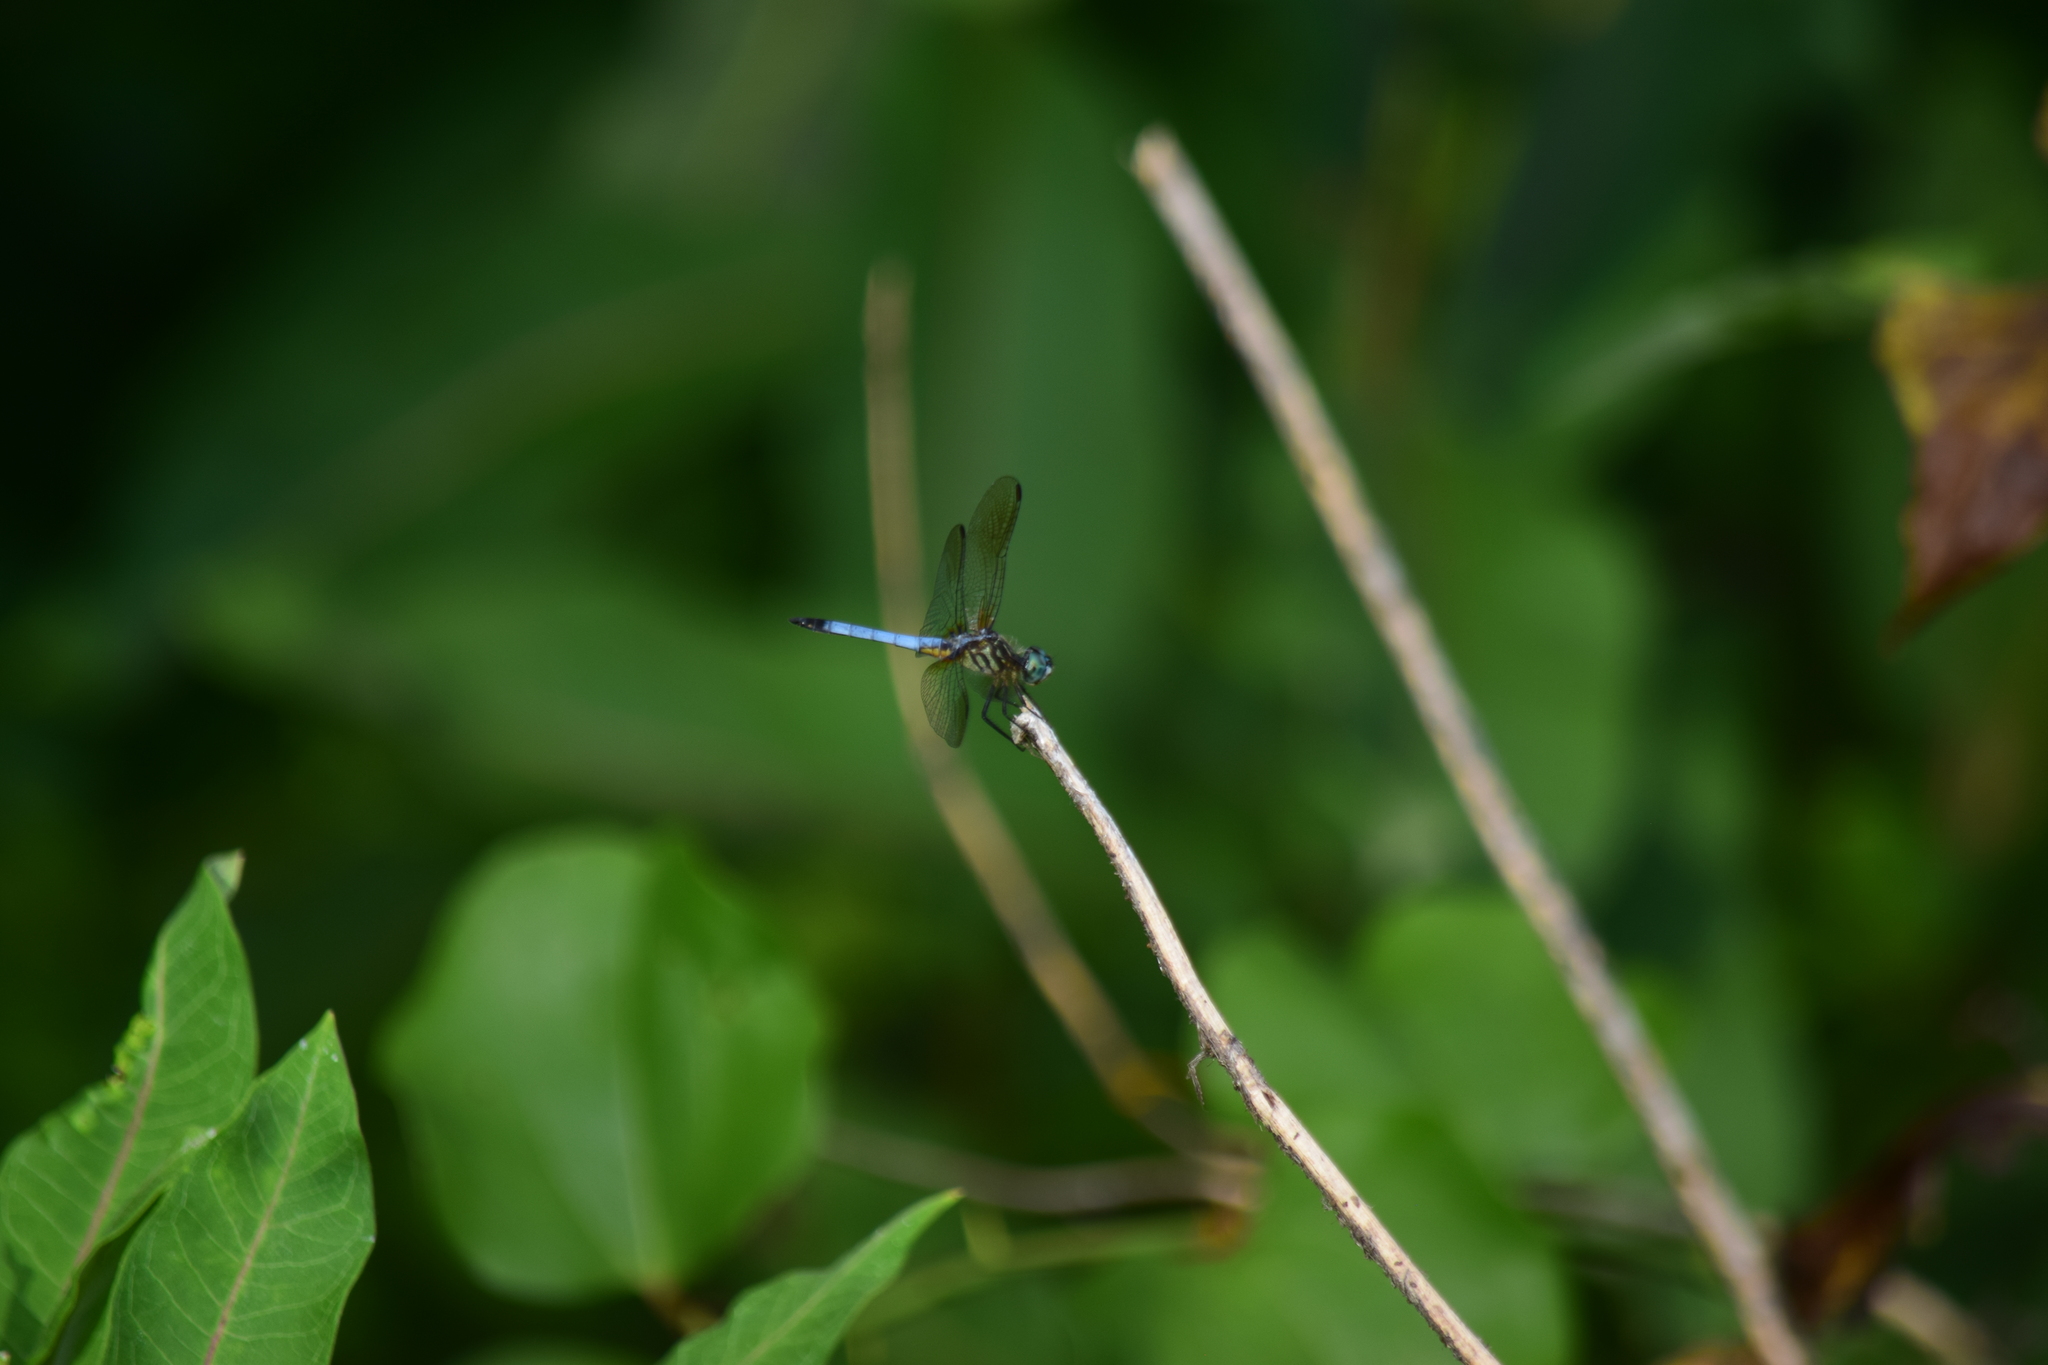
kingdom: Animalia
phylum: Arthropoda
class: Insecta
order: Odonata
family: Libellulidae
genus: Pachydiplax
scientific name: Pachydiplax longipennis
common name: Blue dasher
